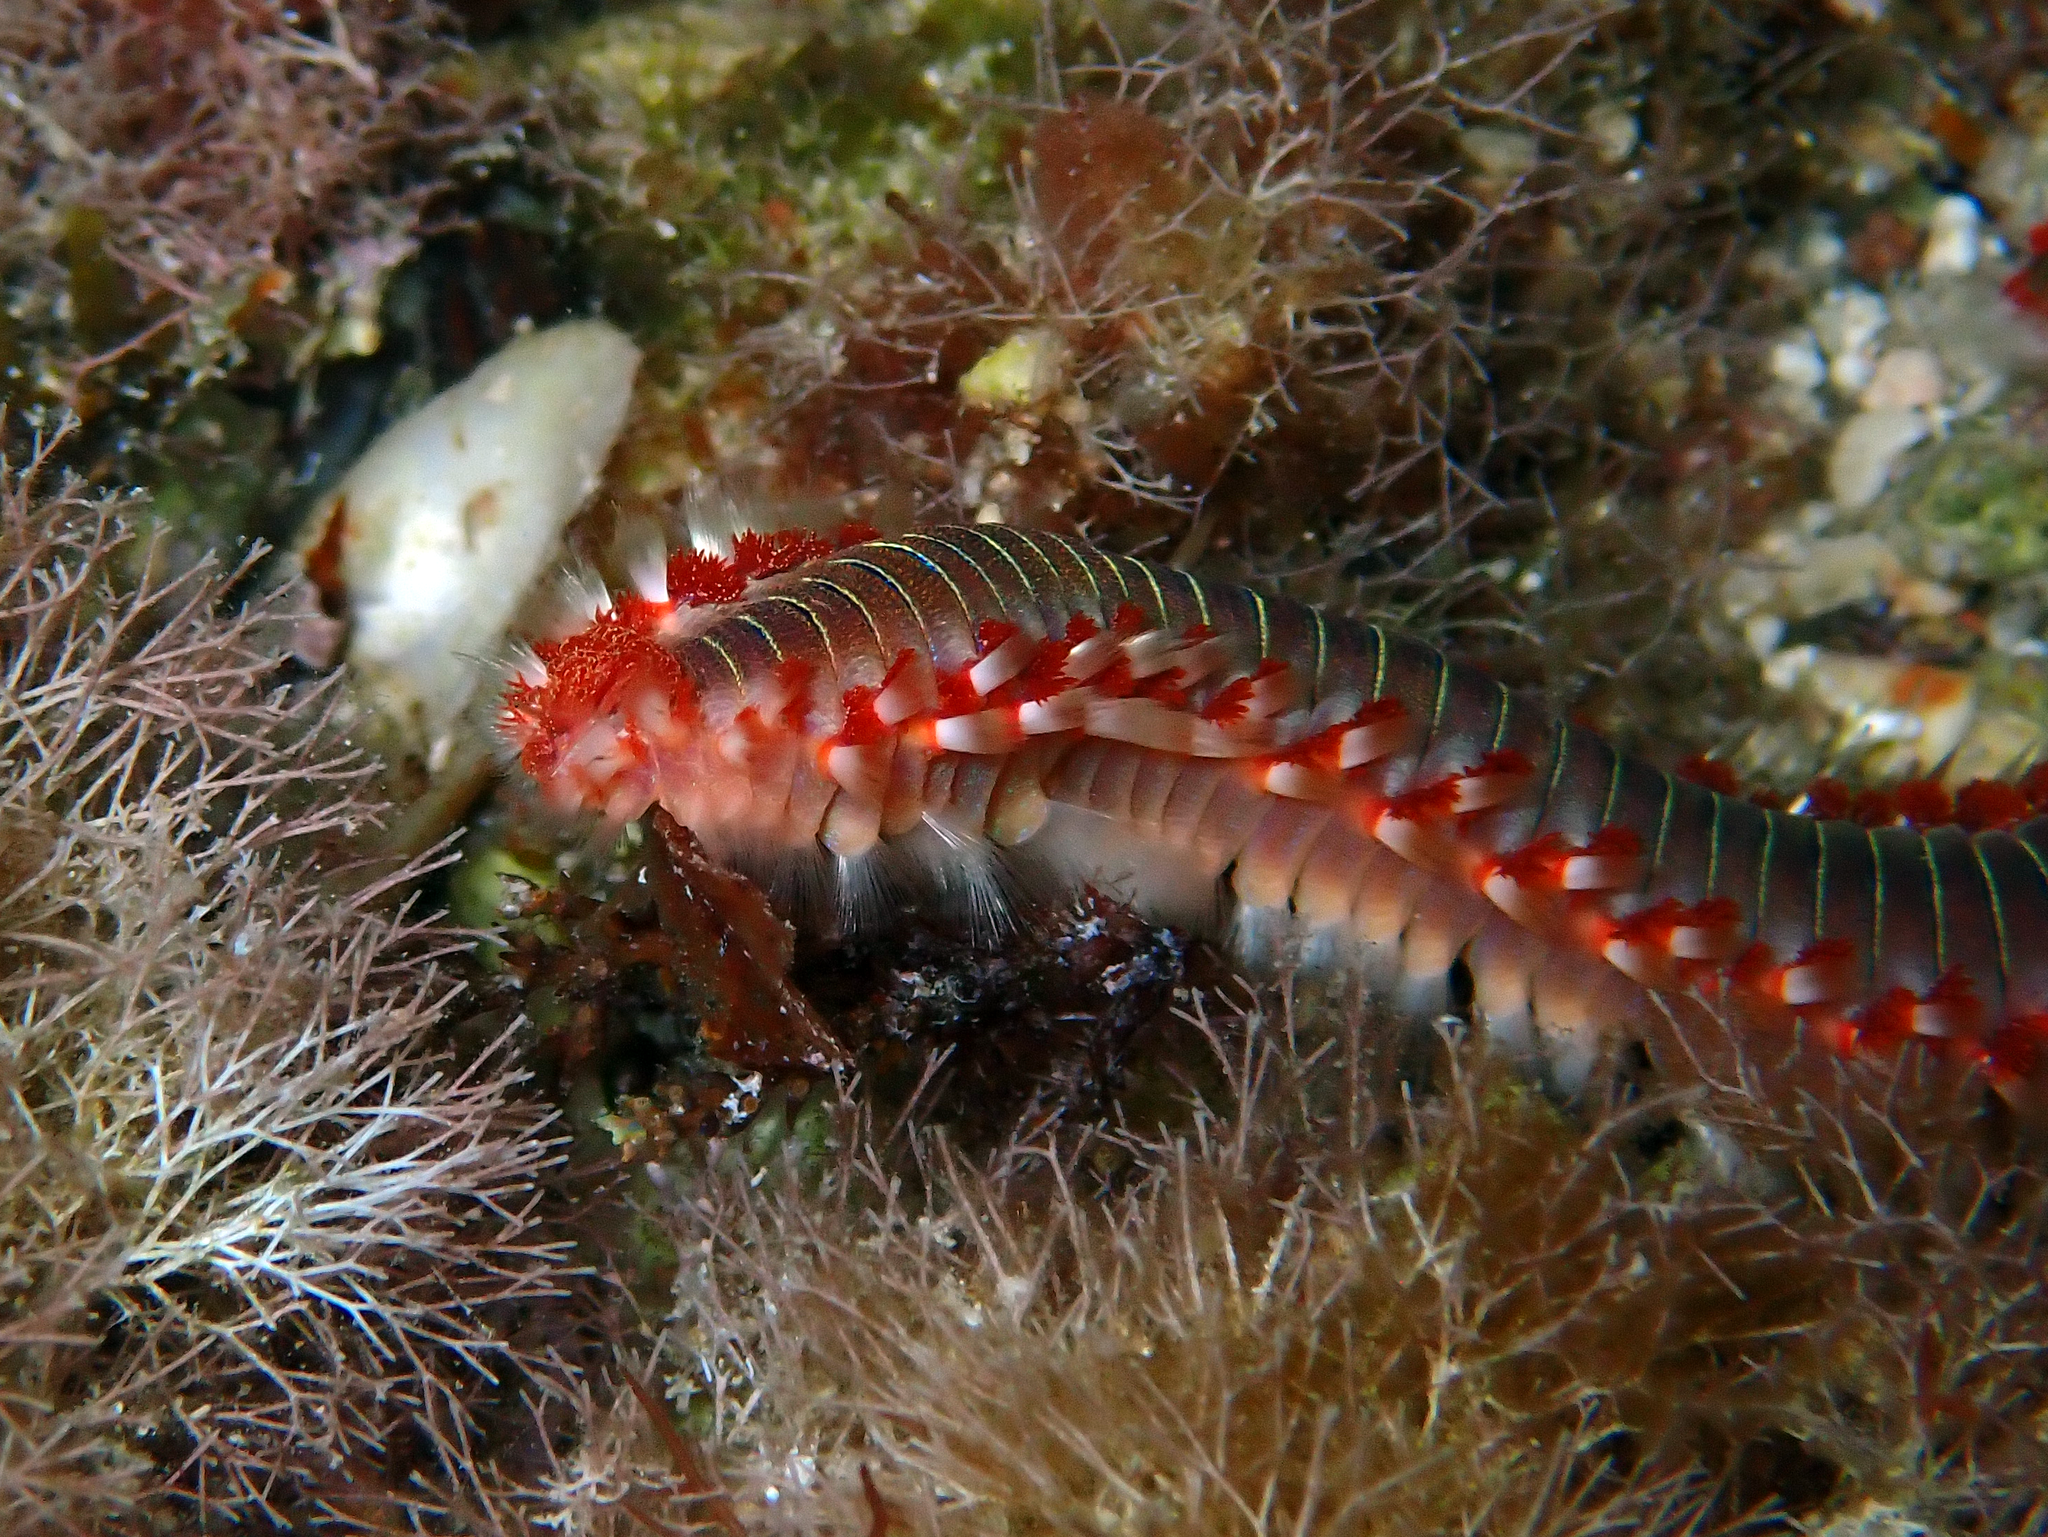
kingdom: Animalia
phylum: Annelida
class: Polychaeta
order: Amphinomida
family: Amphinomidae
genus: Hermodice
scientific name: Hermodice carunculata
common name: Bearded fireworm
